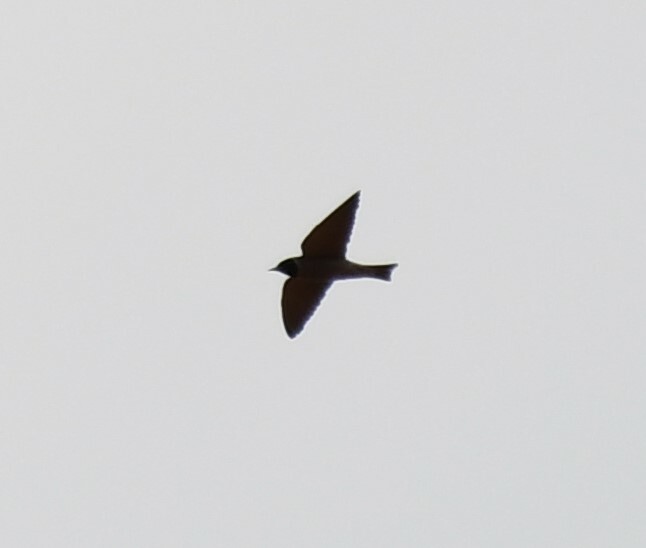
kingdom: Animalia
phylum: Chordata
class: Aves
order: Passeriformes
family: Artamidae
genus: Artamus
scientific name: Artamus personatus
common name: Masked woodswallow
